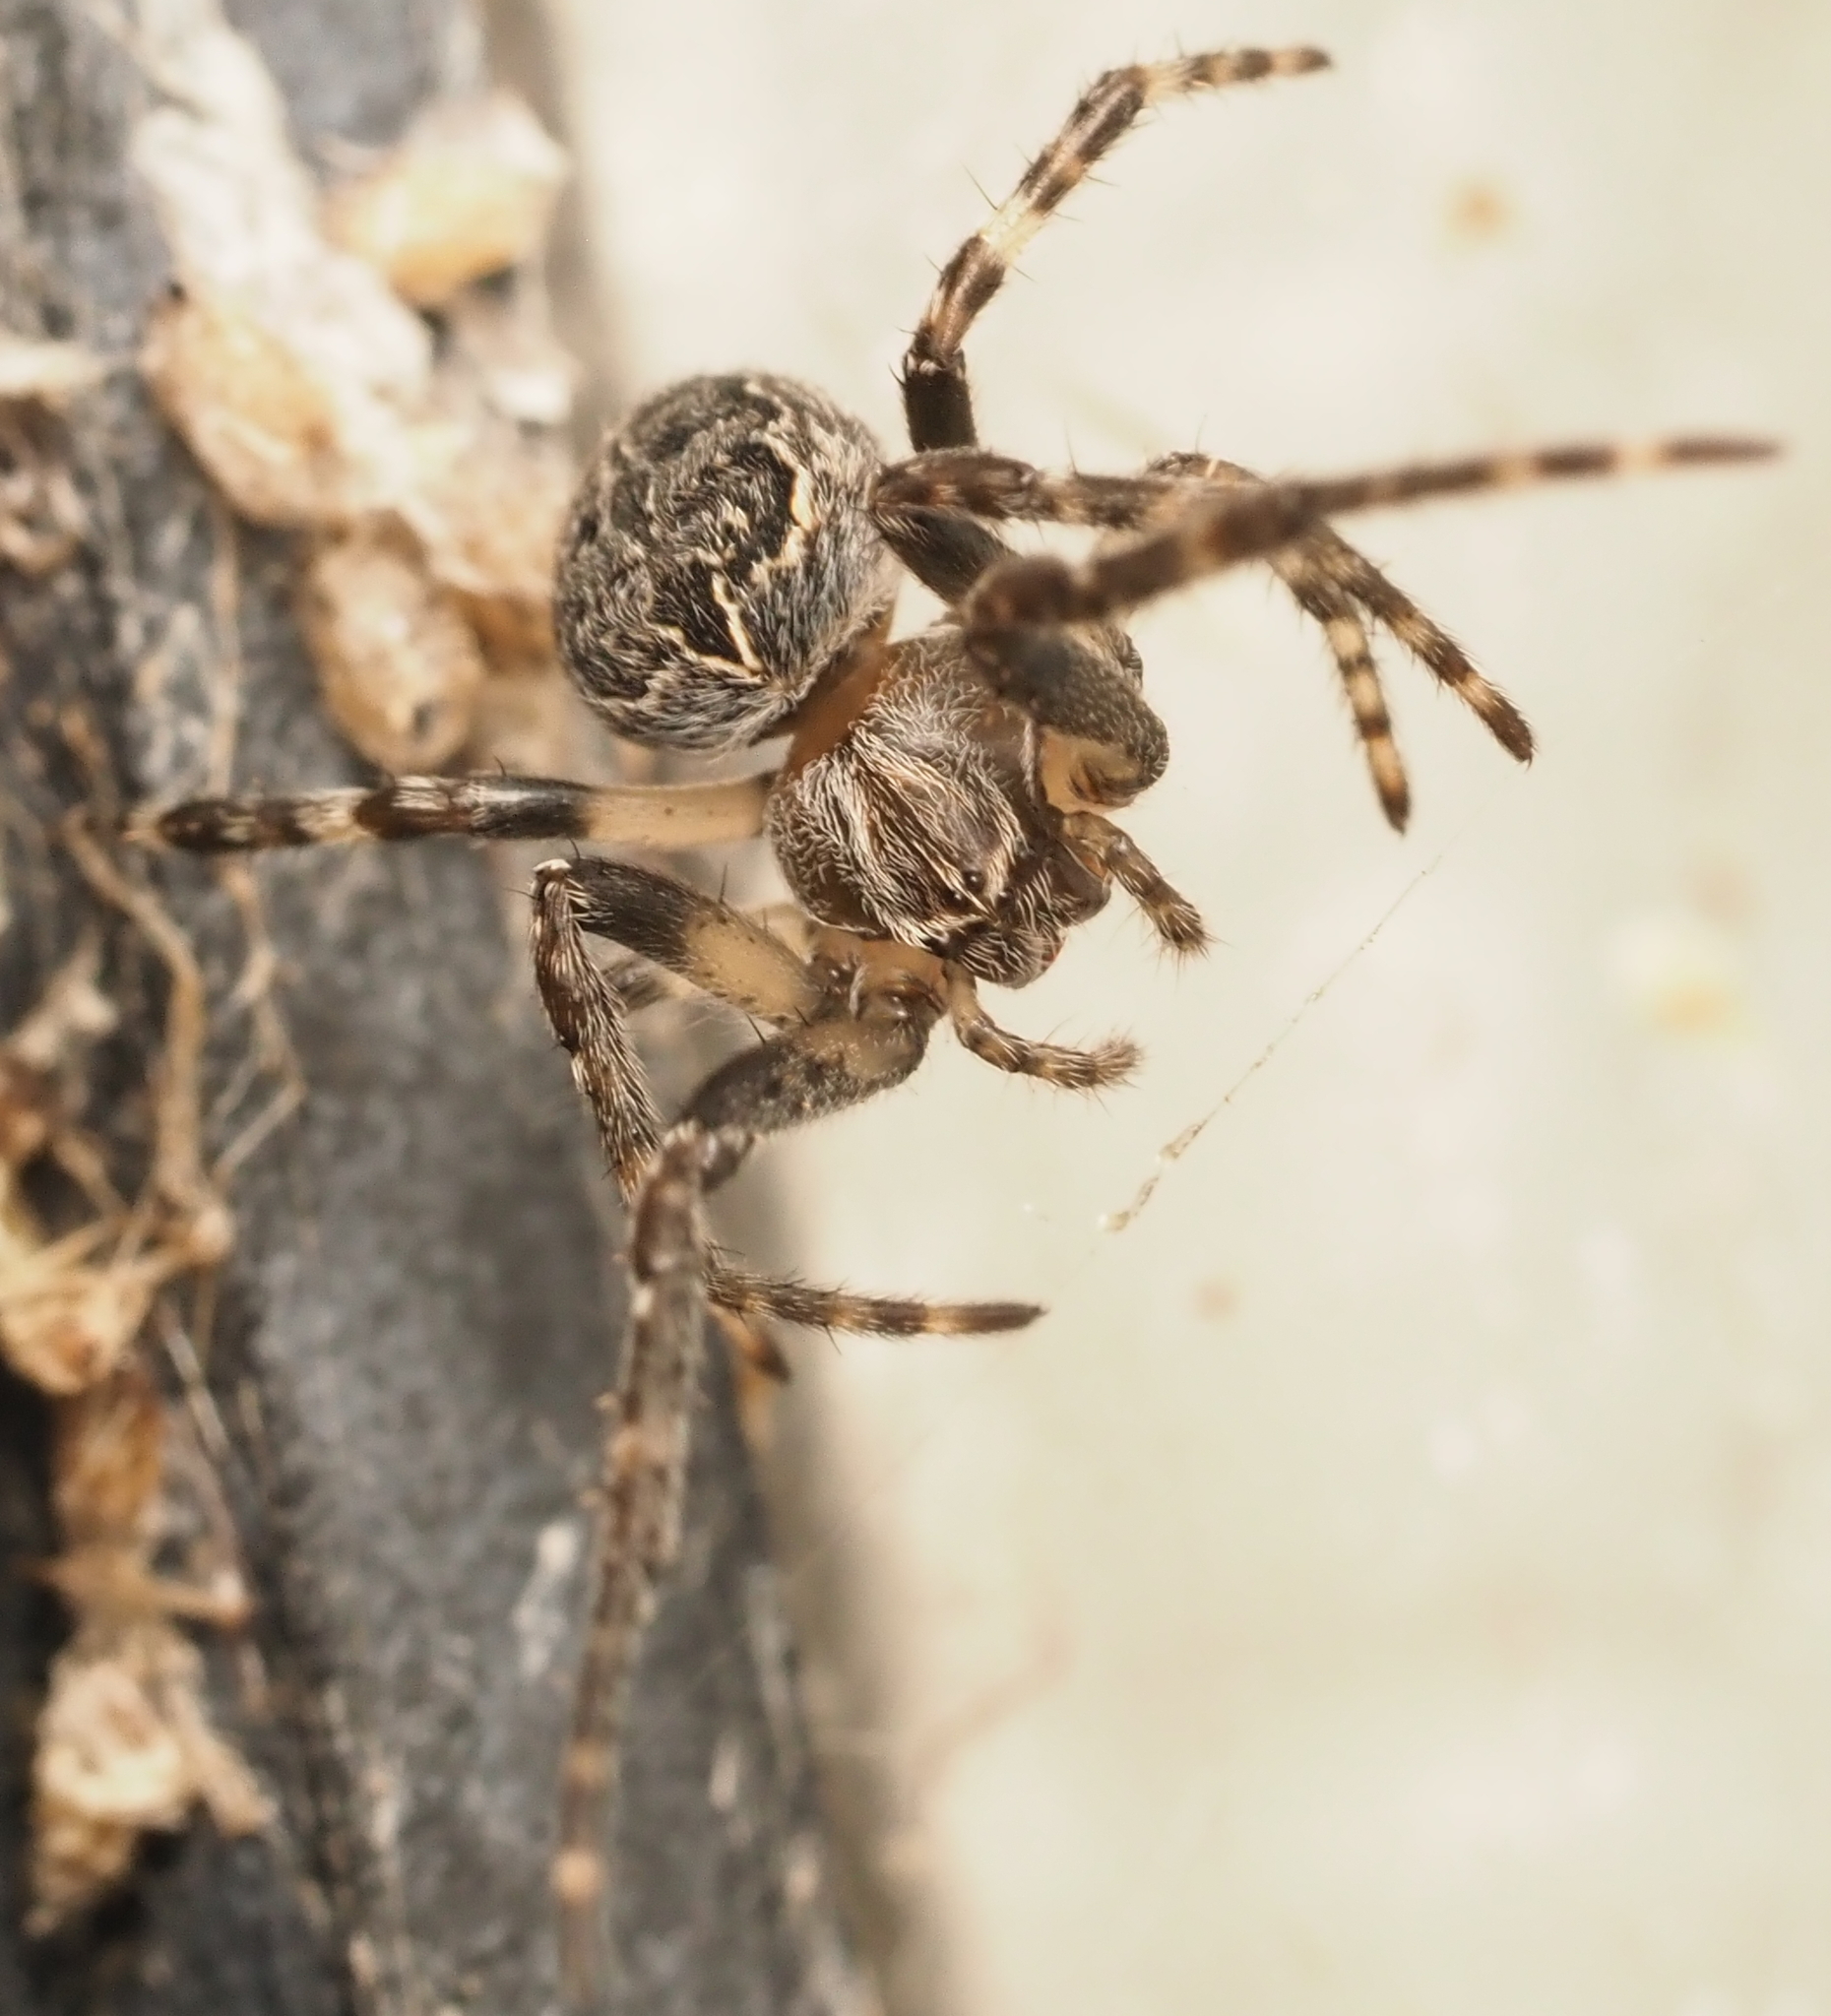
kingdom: Animalia
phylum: Arthropoda
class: Arachnida
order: Araneae
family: Araneidae
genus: Larinioides
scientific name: Larinioides sclopetarius
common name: Bridge orbweaver
